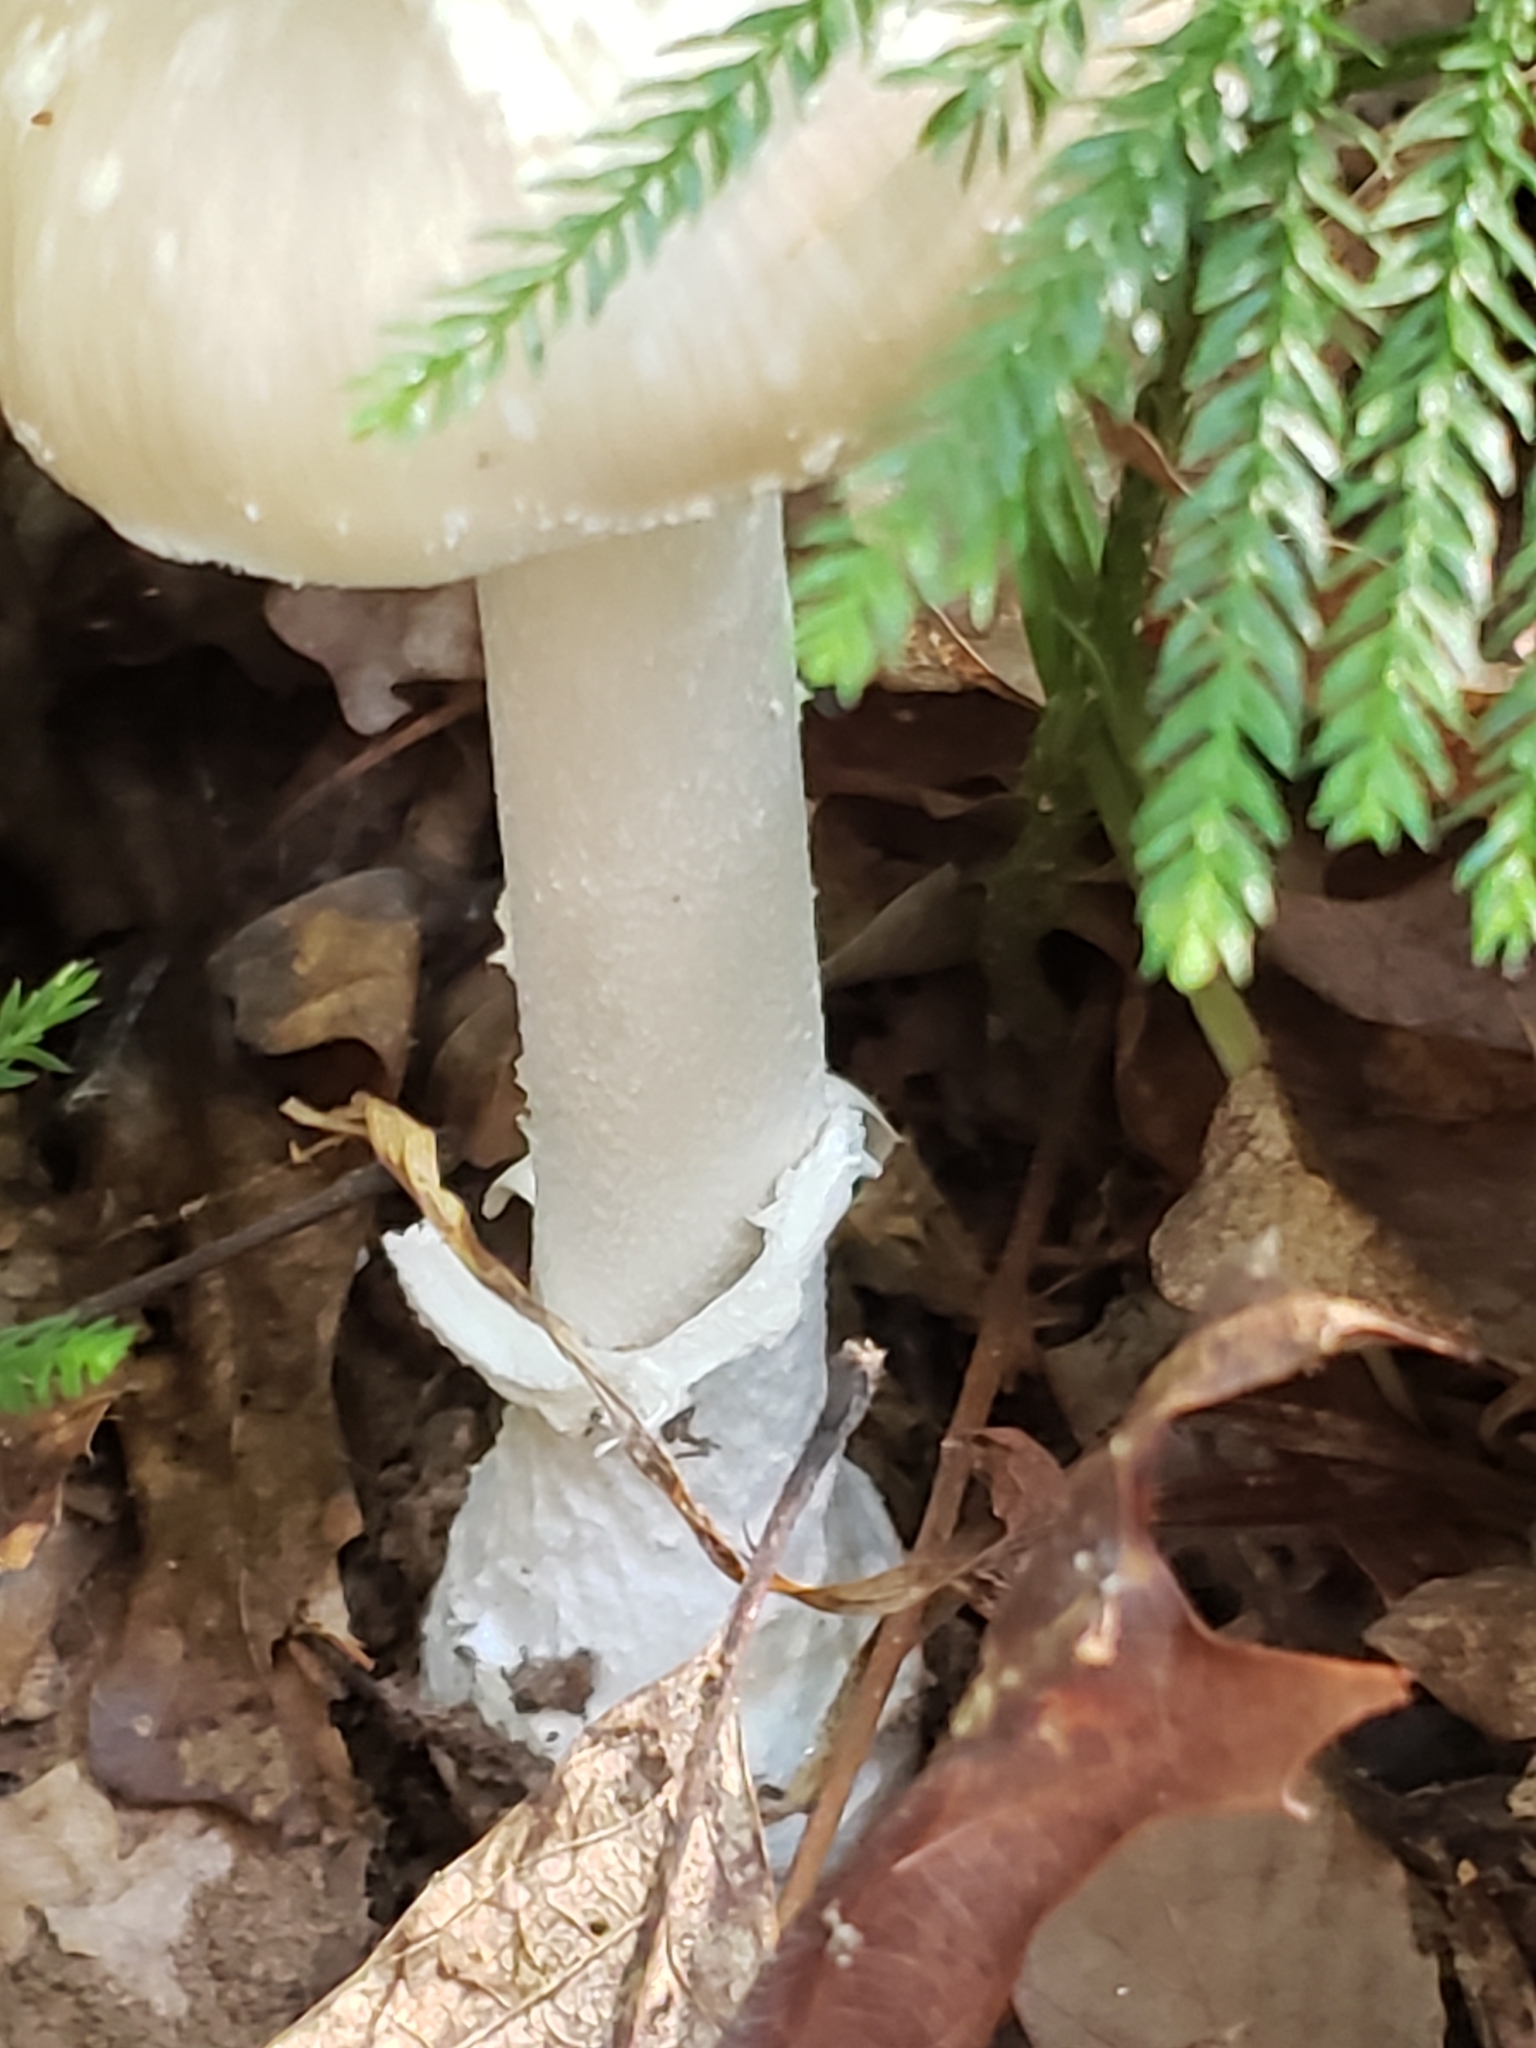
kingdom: Fungi
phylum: Basidiomycota
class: Agaricomycetes
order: Agaricales
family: Amanitaceae
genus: Amanita
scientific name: Amanita bisporigera
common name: Eastern north american destroying angel
